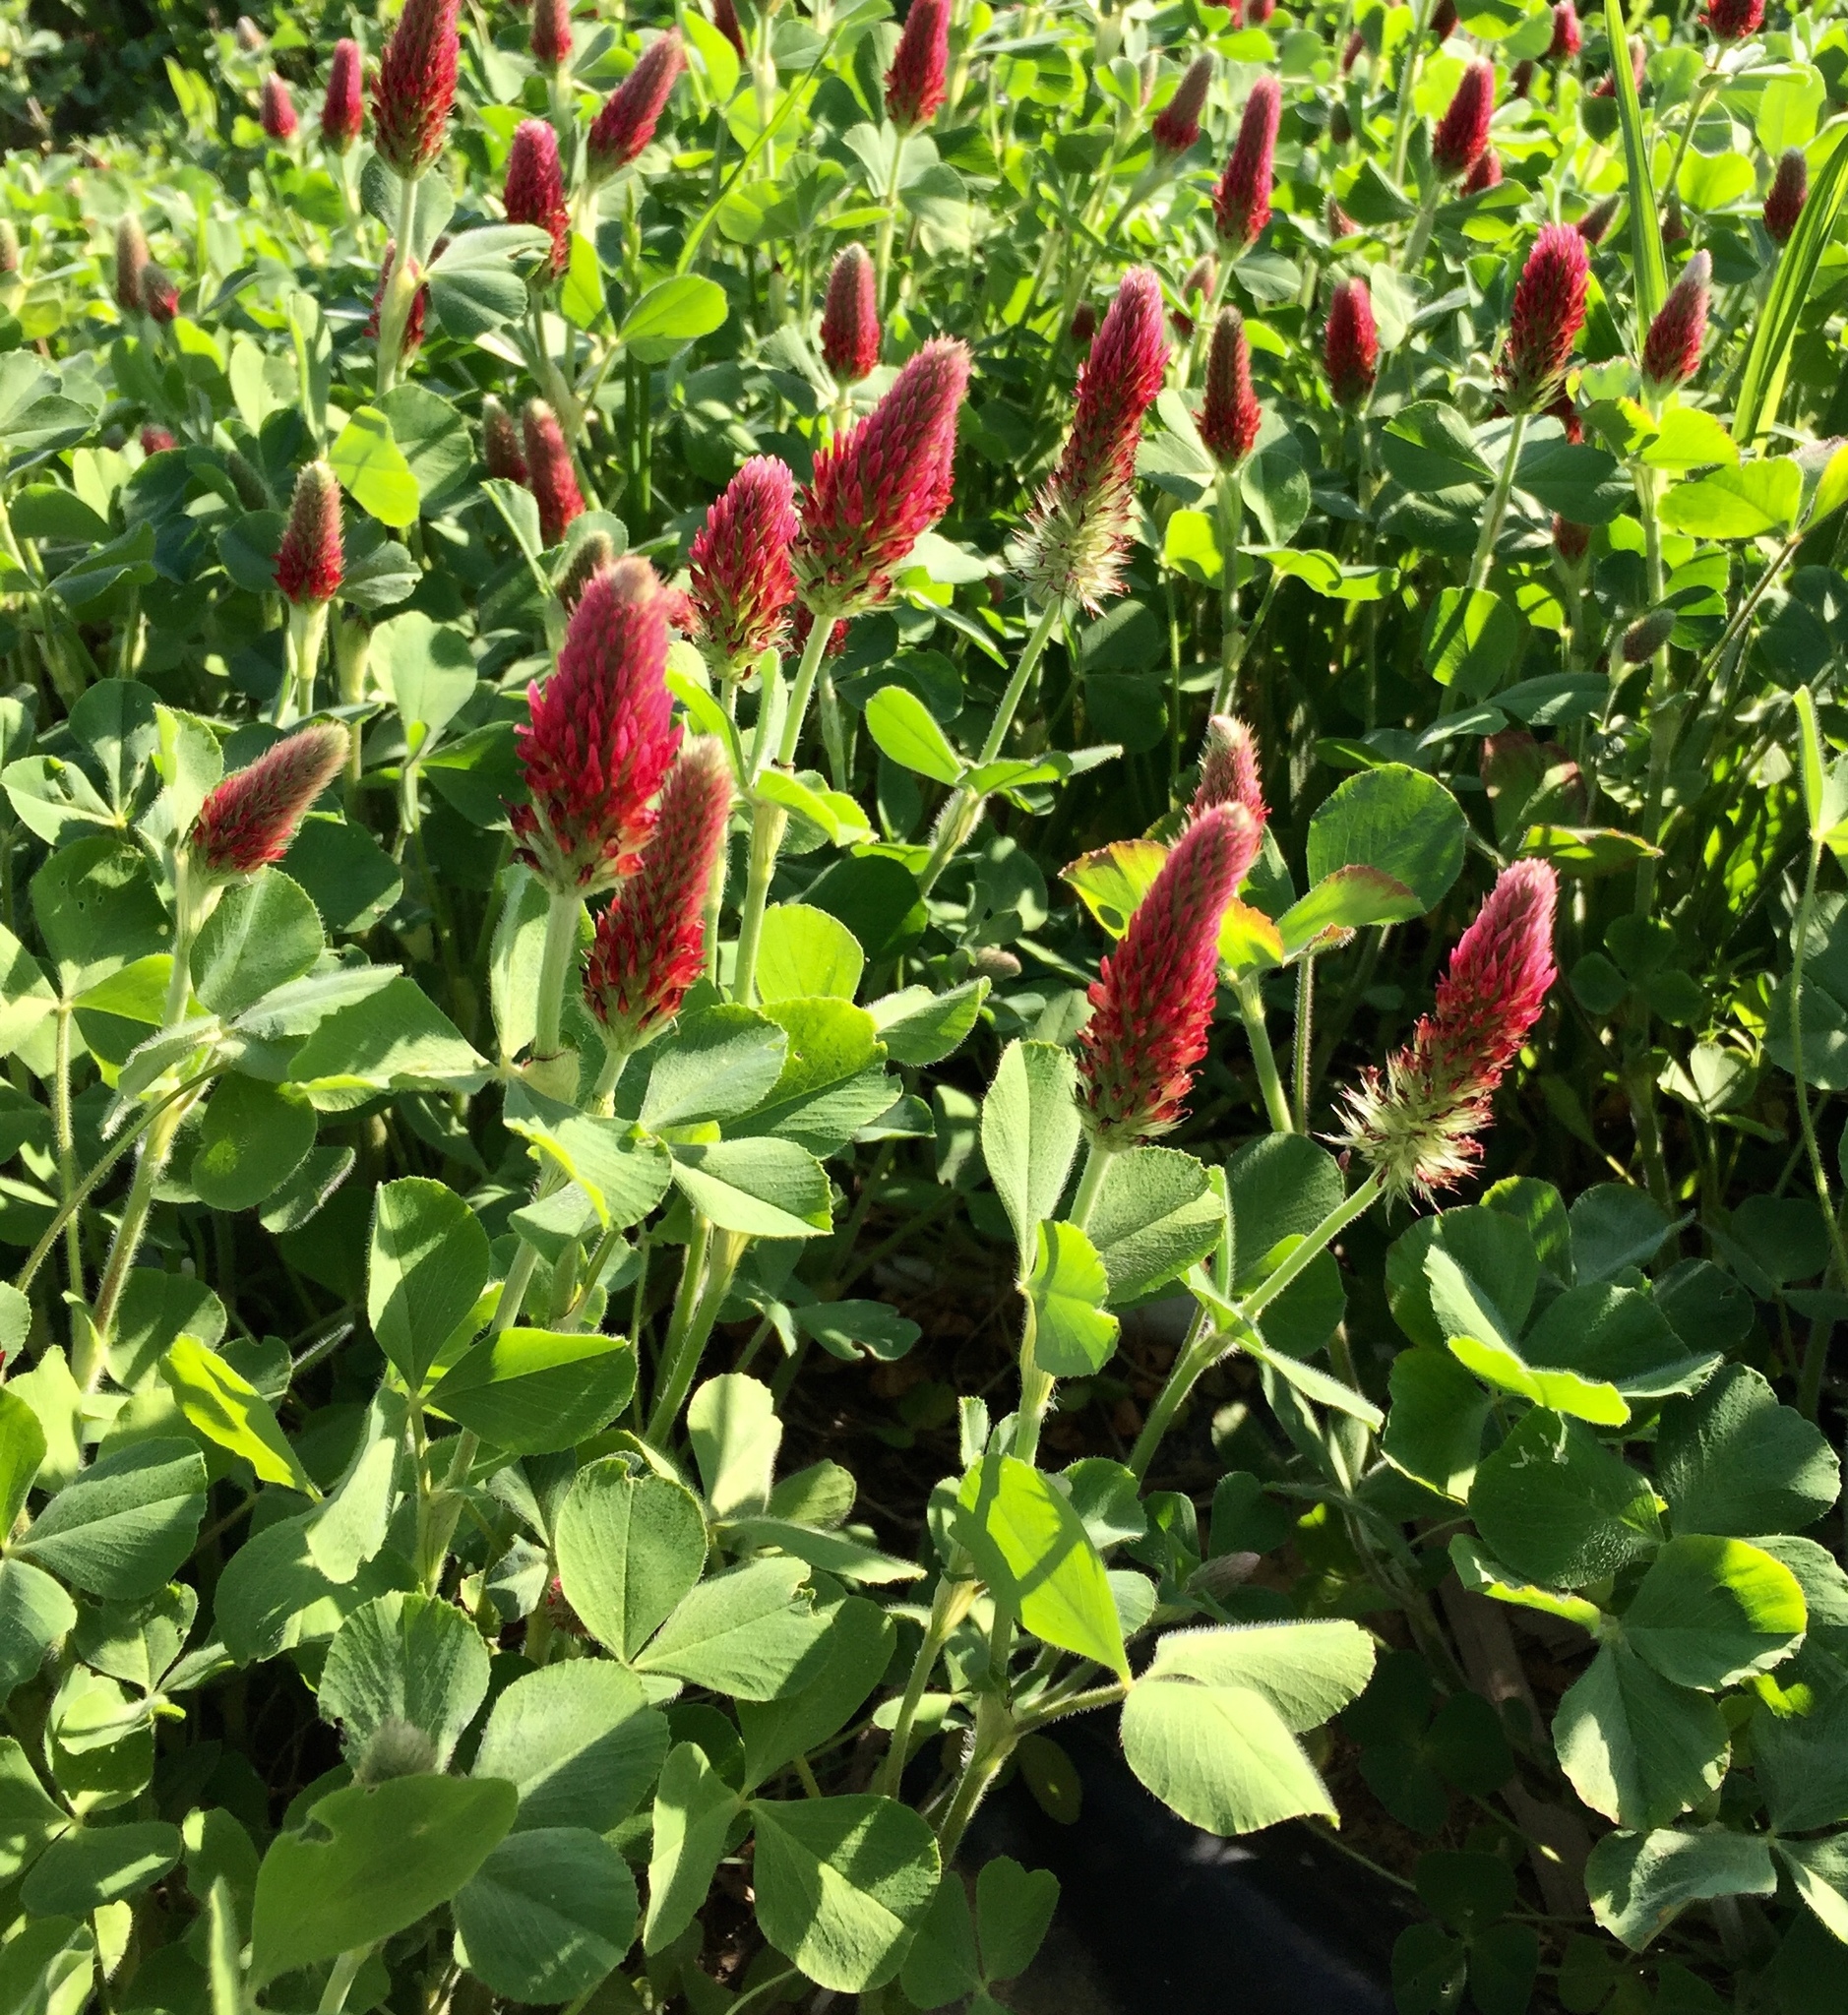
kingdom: Plantae
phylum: Tracheophyta
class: Magnoliopsida
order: Fabales
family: Fabaceae
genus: Trifolium
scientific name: Trifolium incarnatum
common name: Crimson clover
